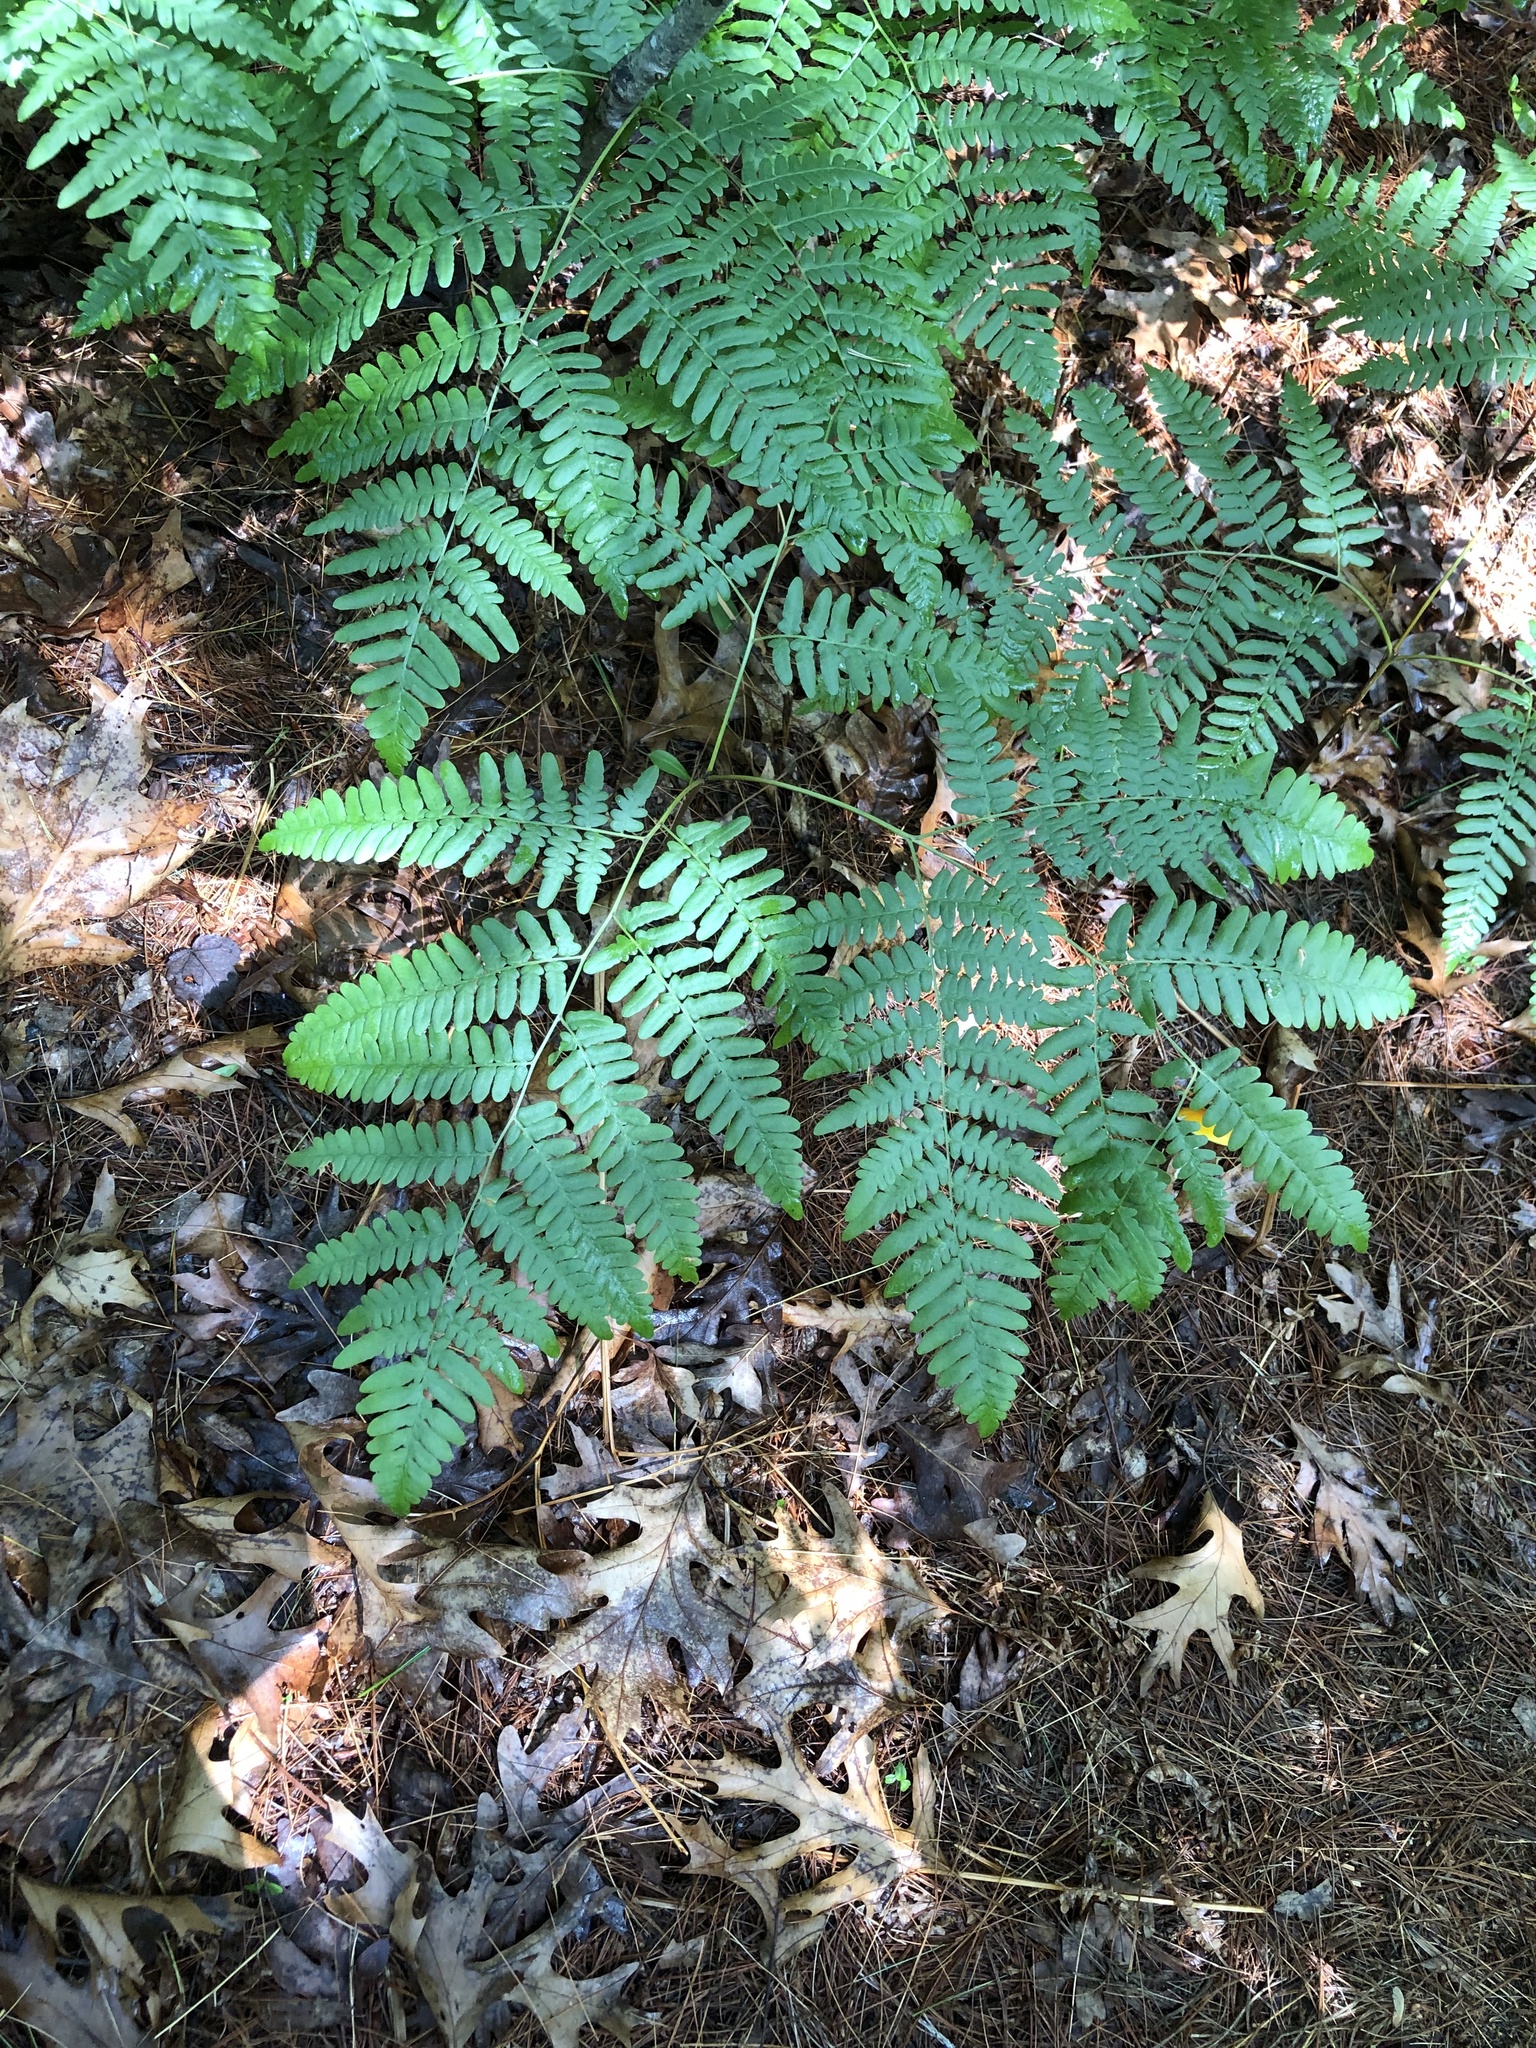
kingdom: Plantae
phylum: Tracheophyta
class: Polypodiopsida
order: Polypodiales
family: Dennstaedtiaceae
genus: Pteridium
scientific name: Pteridium aquilinum
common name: Bracken
